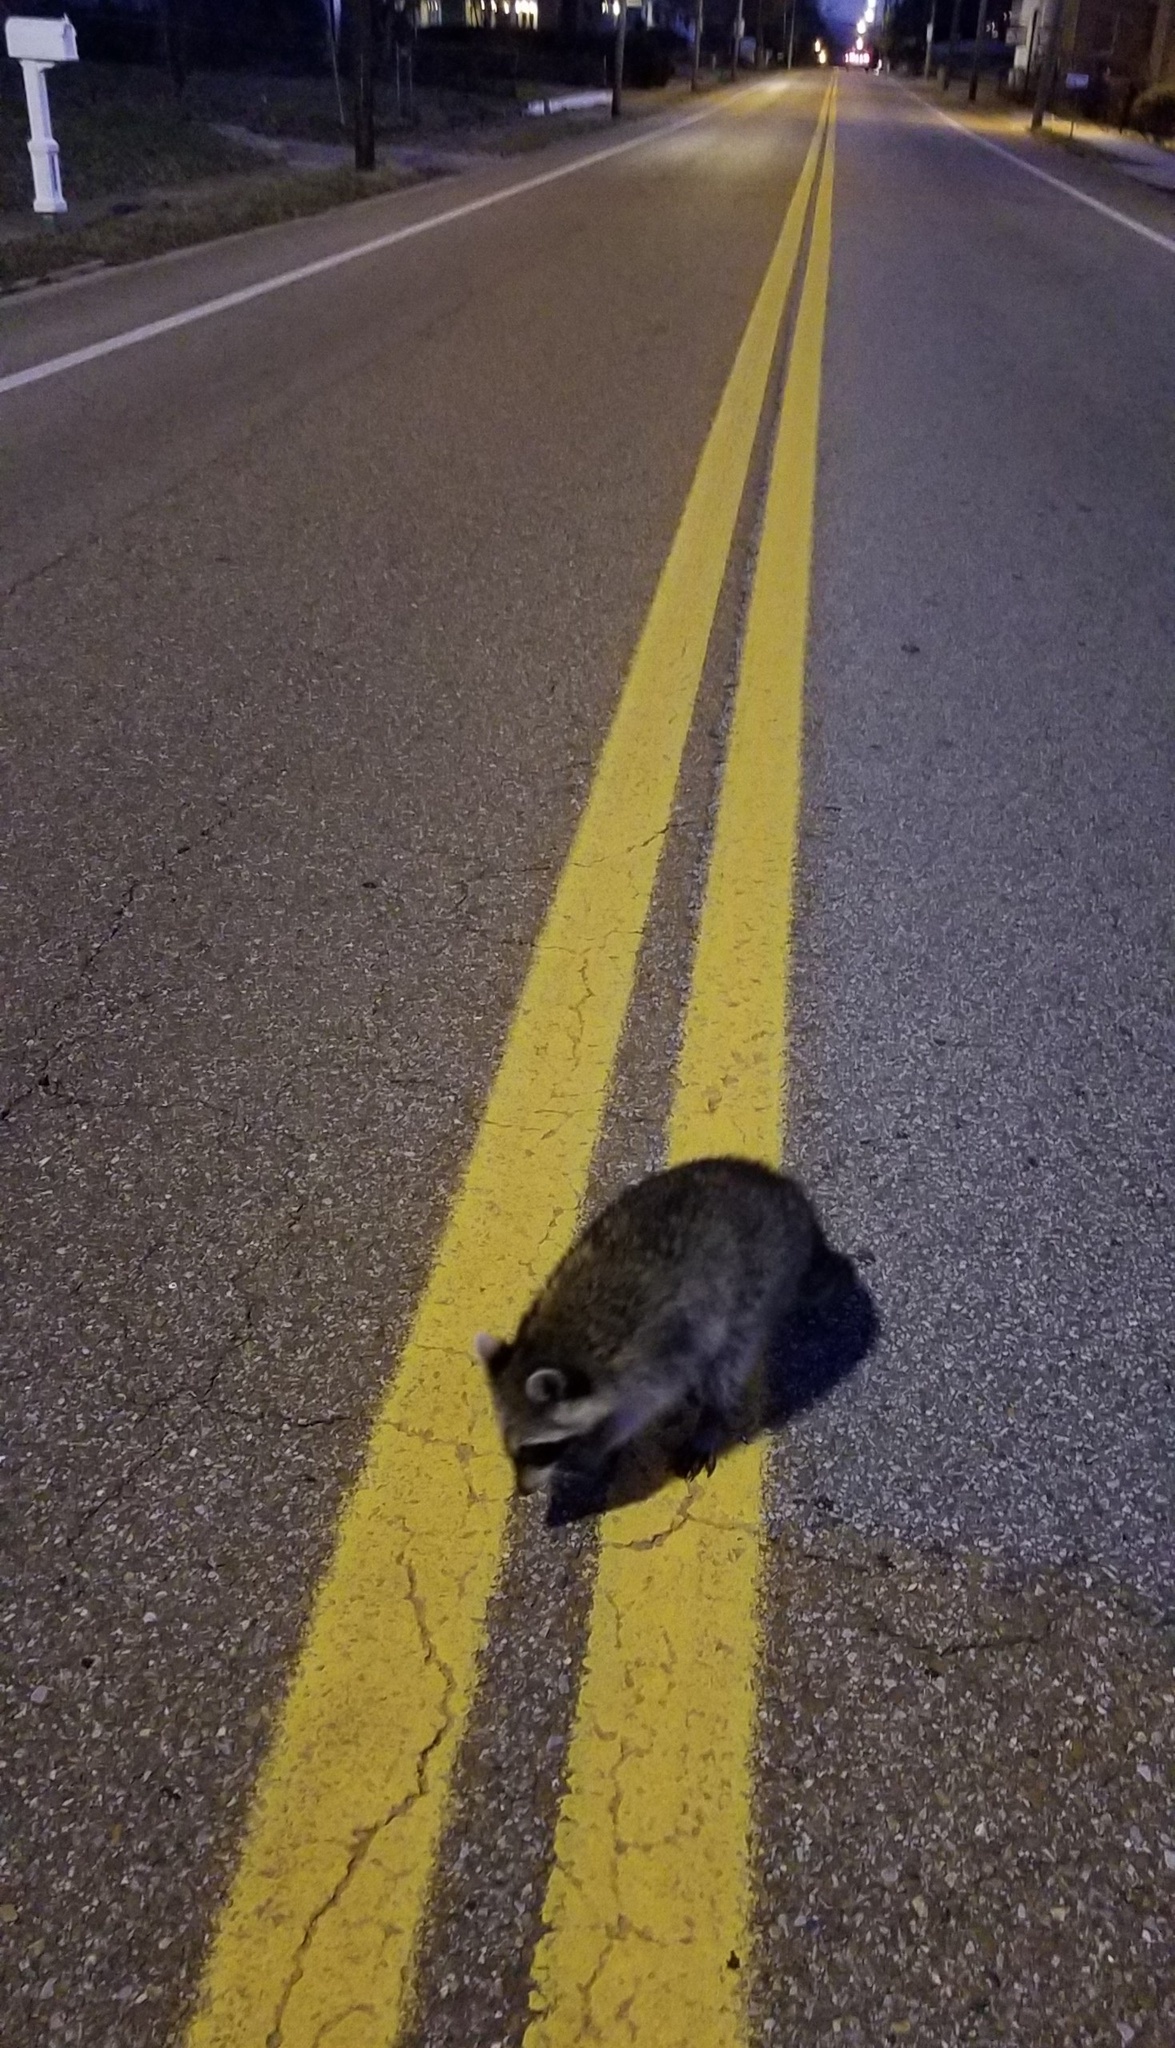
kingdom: Animalia
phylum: Chordata
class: Mammalia
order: Carnivora
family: Procyonidae
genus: Procyon
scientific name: Procyon lotor
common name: Raccoon
